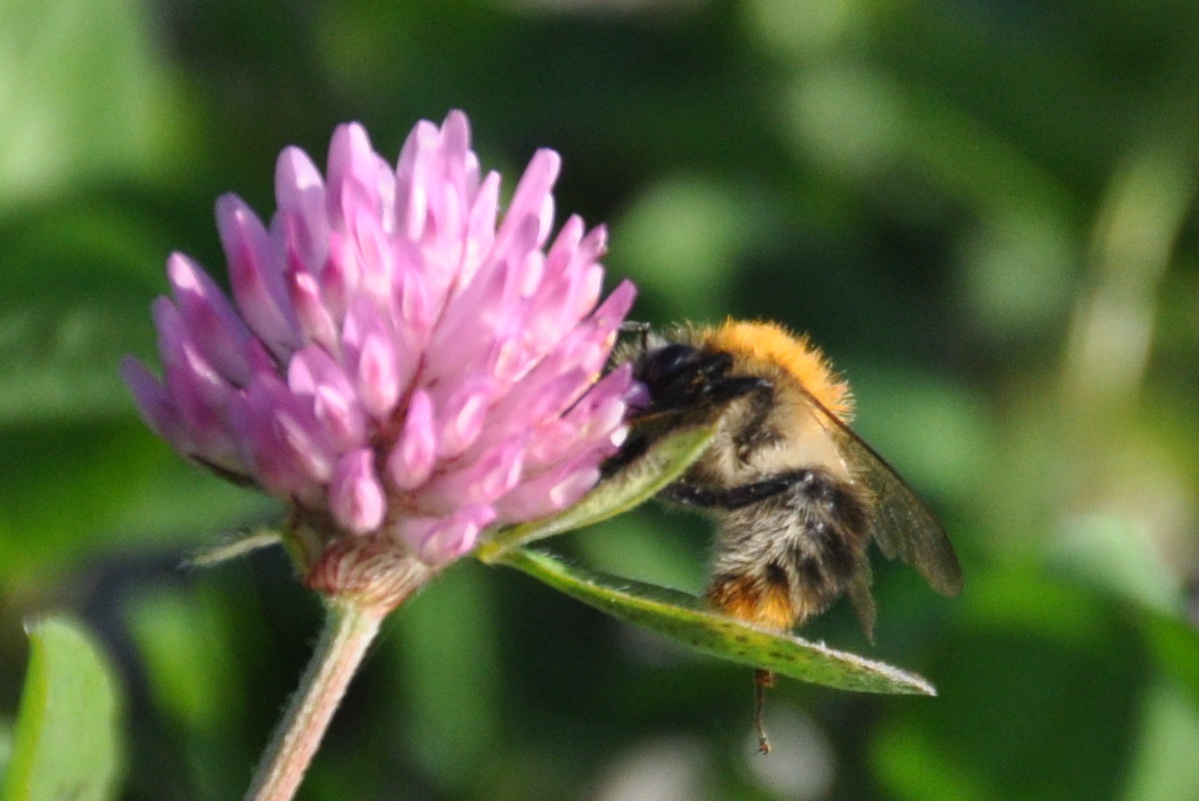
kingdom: Animalia
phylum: Arthropoda
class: Insecta
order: Hymenoptera
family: Apidae
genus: Bombus
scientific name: Bombus pascuorum
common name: Common carder bee
